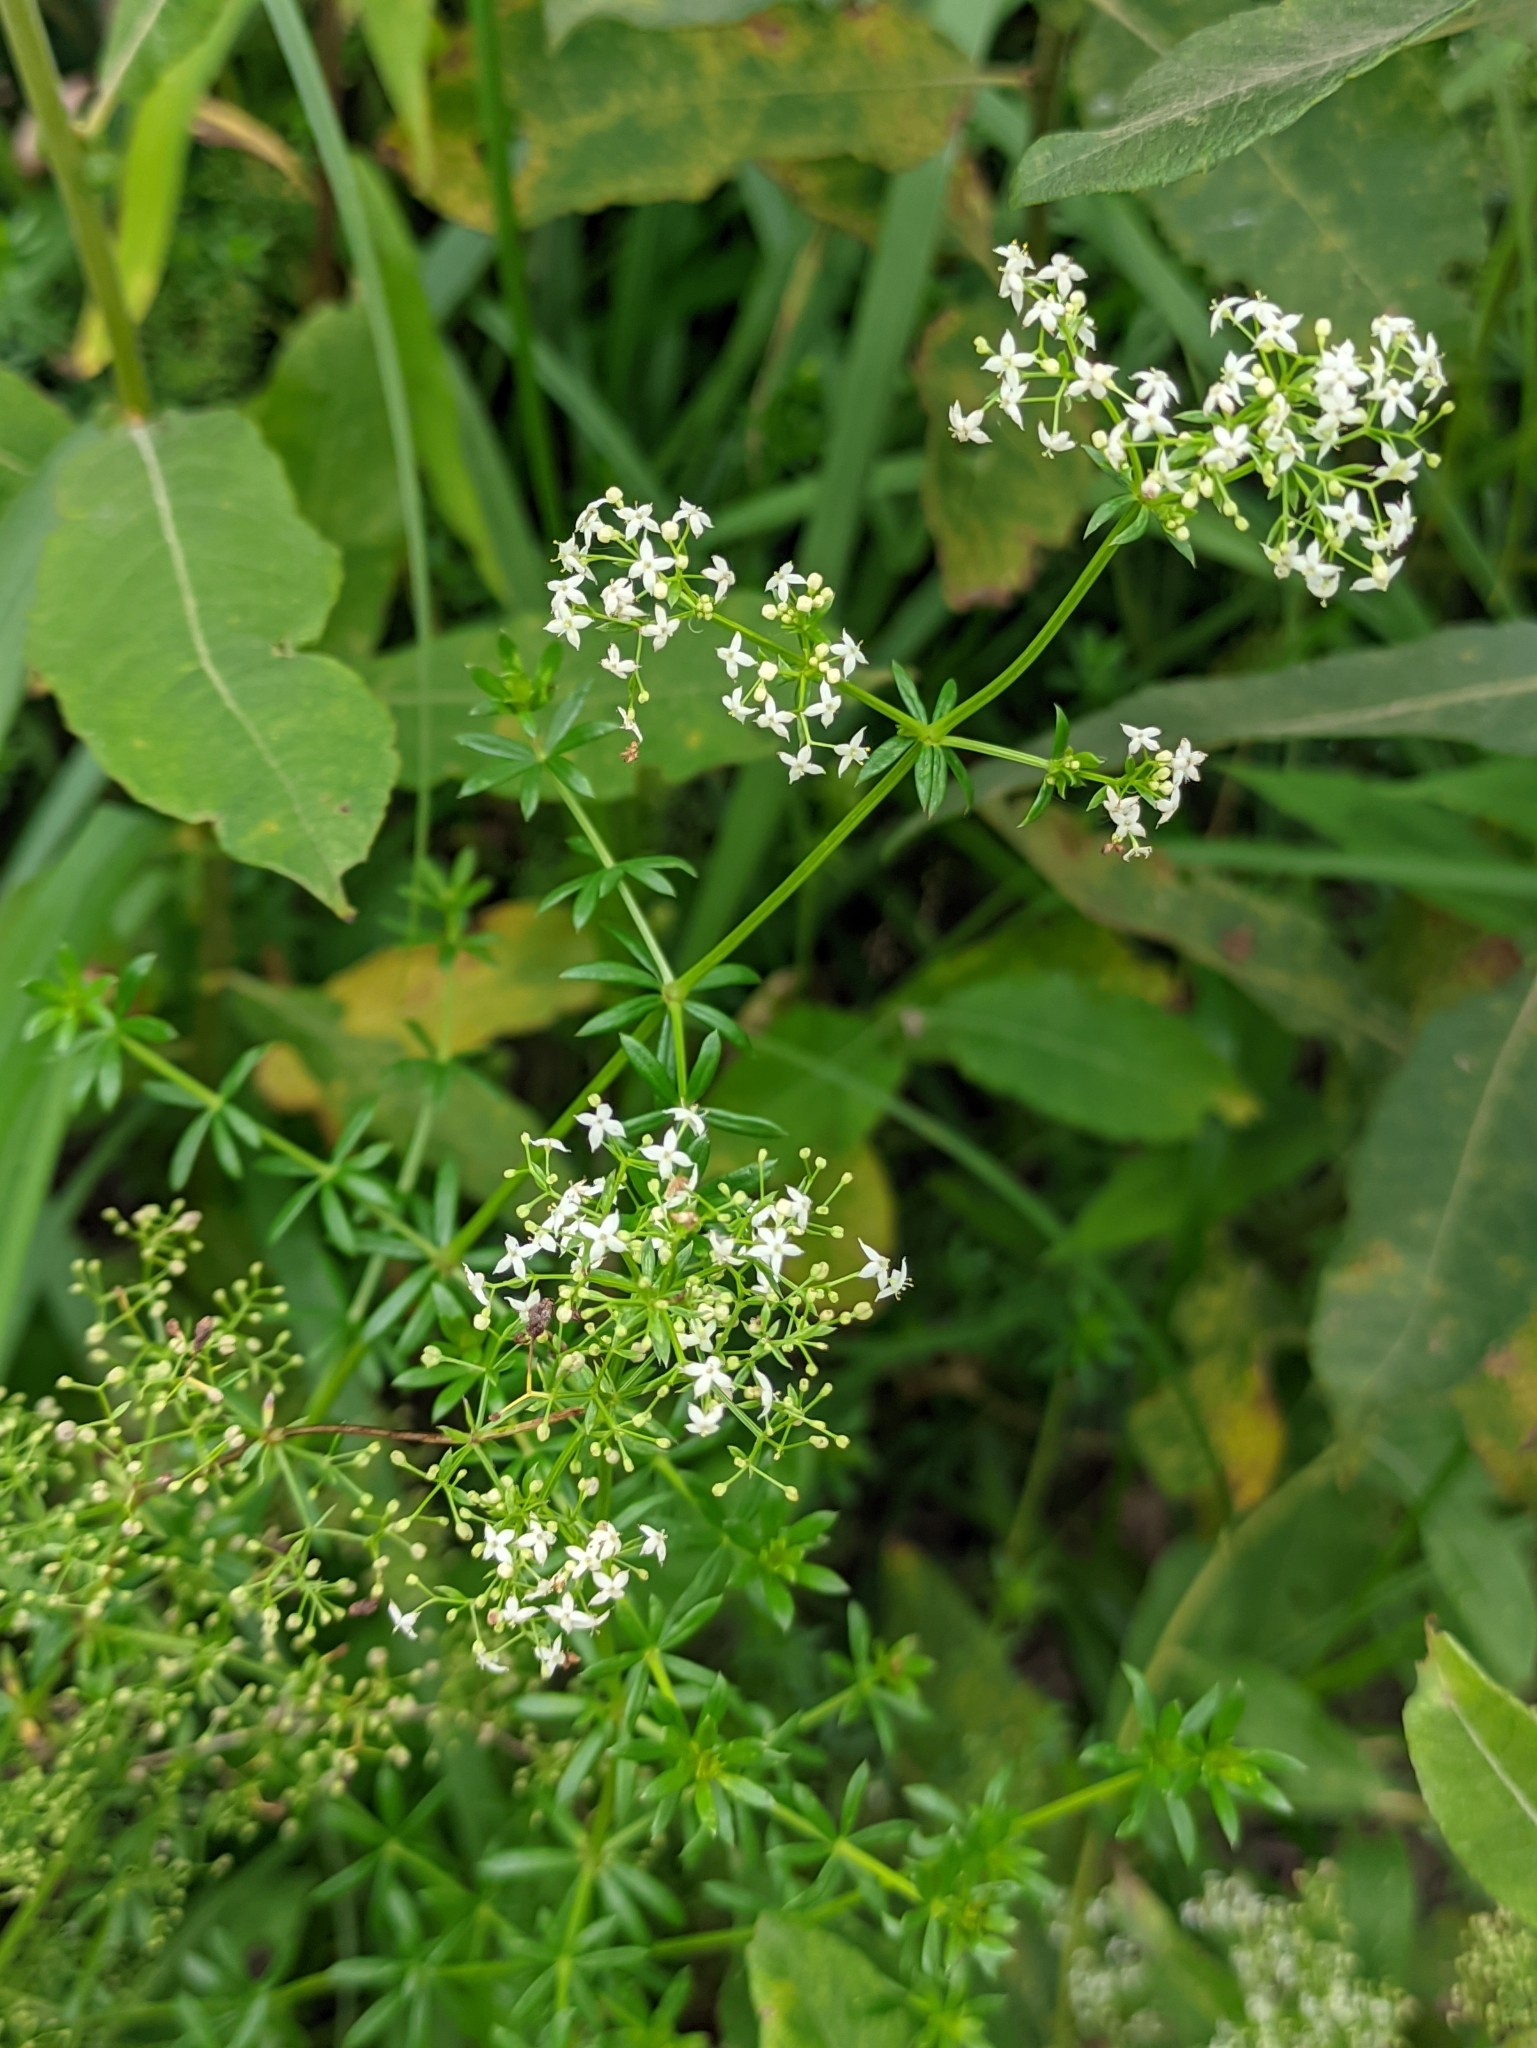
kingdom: Plantae
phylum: Tracheophyta
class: Magnoliopsida
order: Gentianales
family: Rubiaceae
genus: Galium
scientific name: Galium mollugo
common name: Hedge bedstraw
